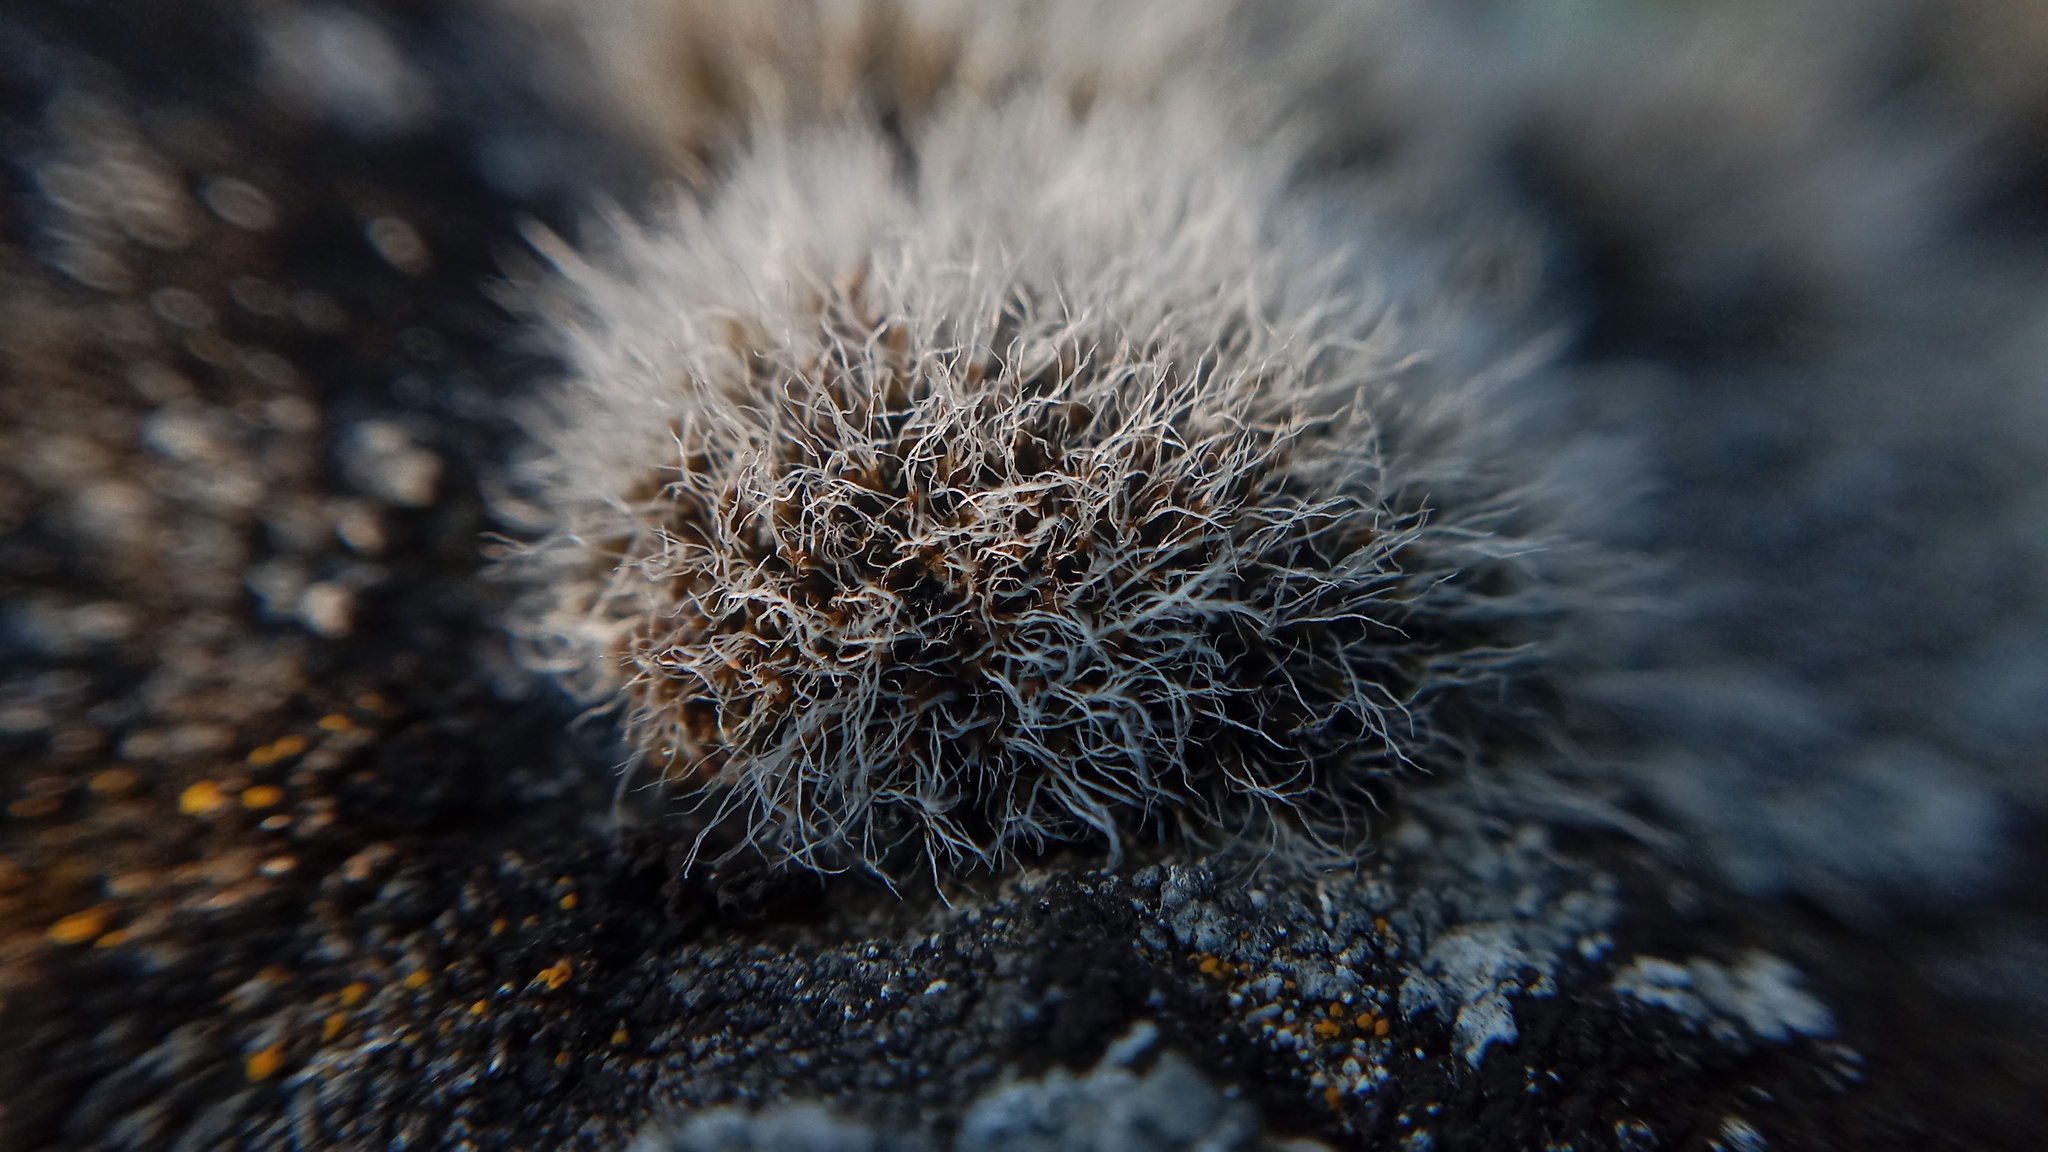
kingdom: Plantae
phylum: Bryophyta
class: Bryopsida
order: Grimmiales
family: Grimmiaceae
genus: Grimmia
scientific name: Grimmia pulvinata
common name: Grey-cushioned grimmia
